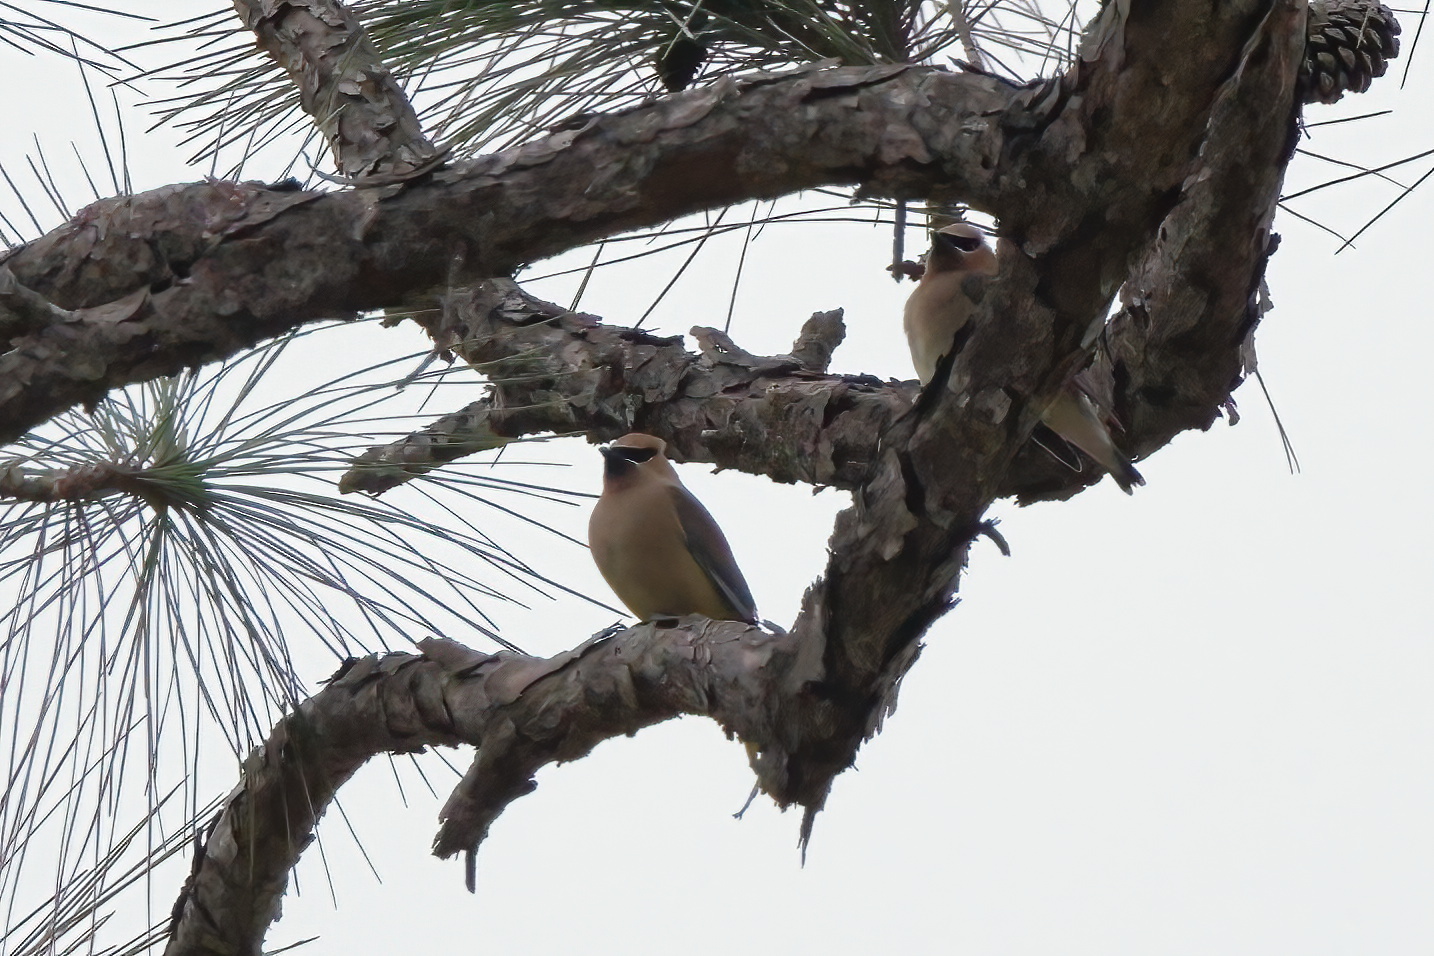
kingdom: Animalia
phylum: Chordata
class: Aves
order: Passeriformes
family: Bombycillidae
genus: Bombycilla
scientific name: Bombycilla cedrorum
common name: Cedar waxwing
